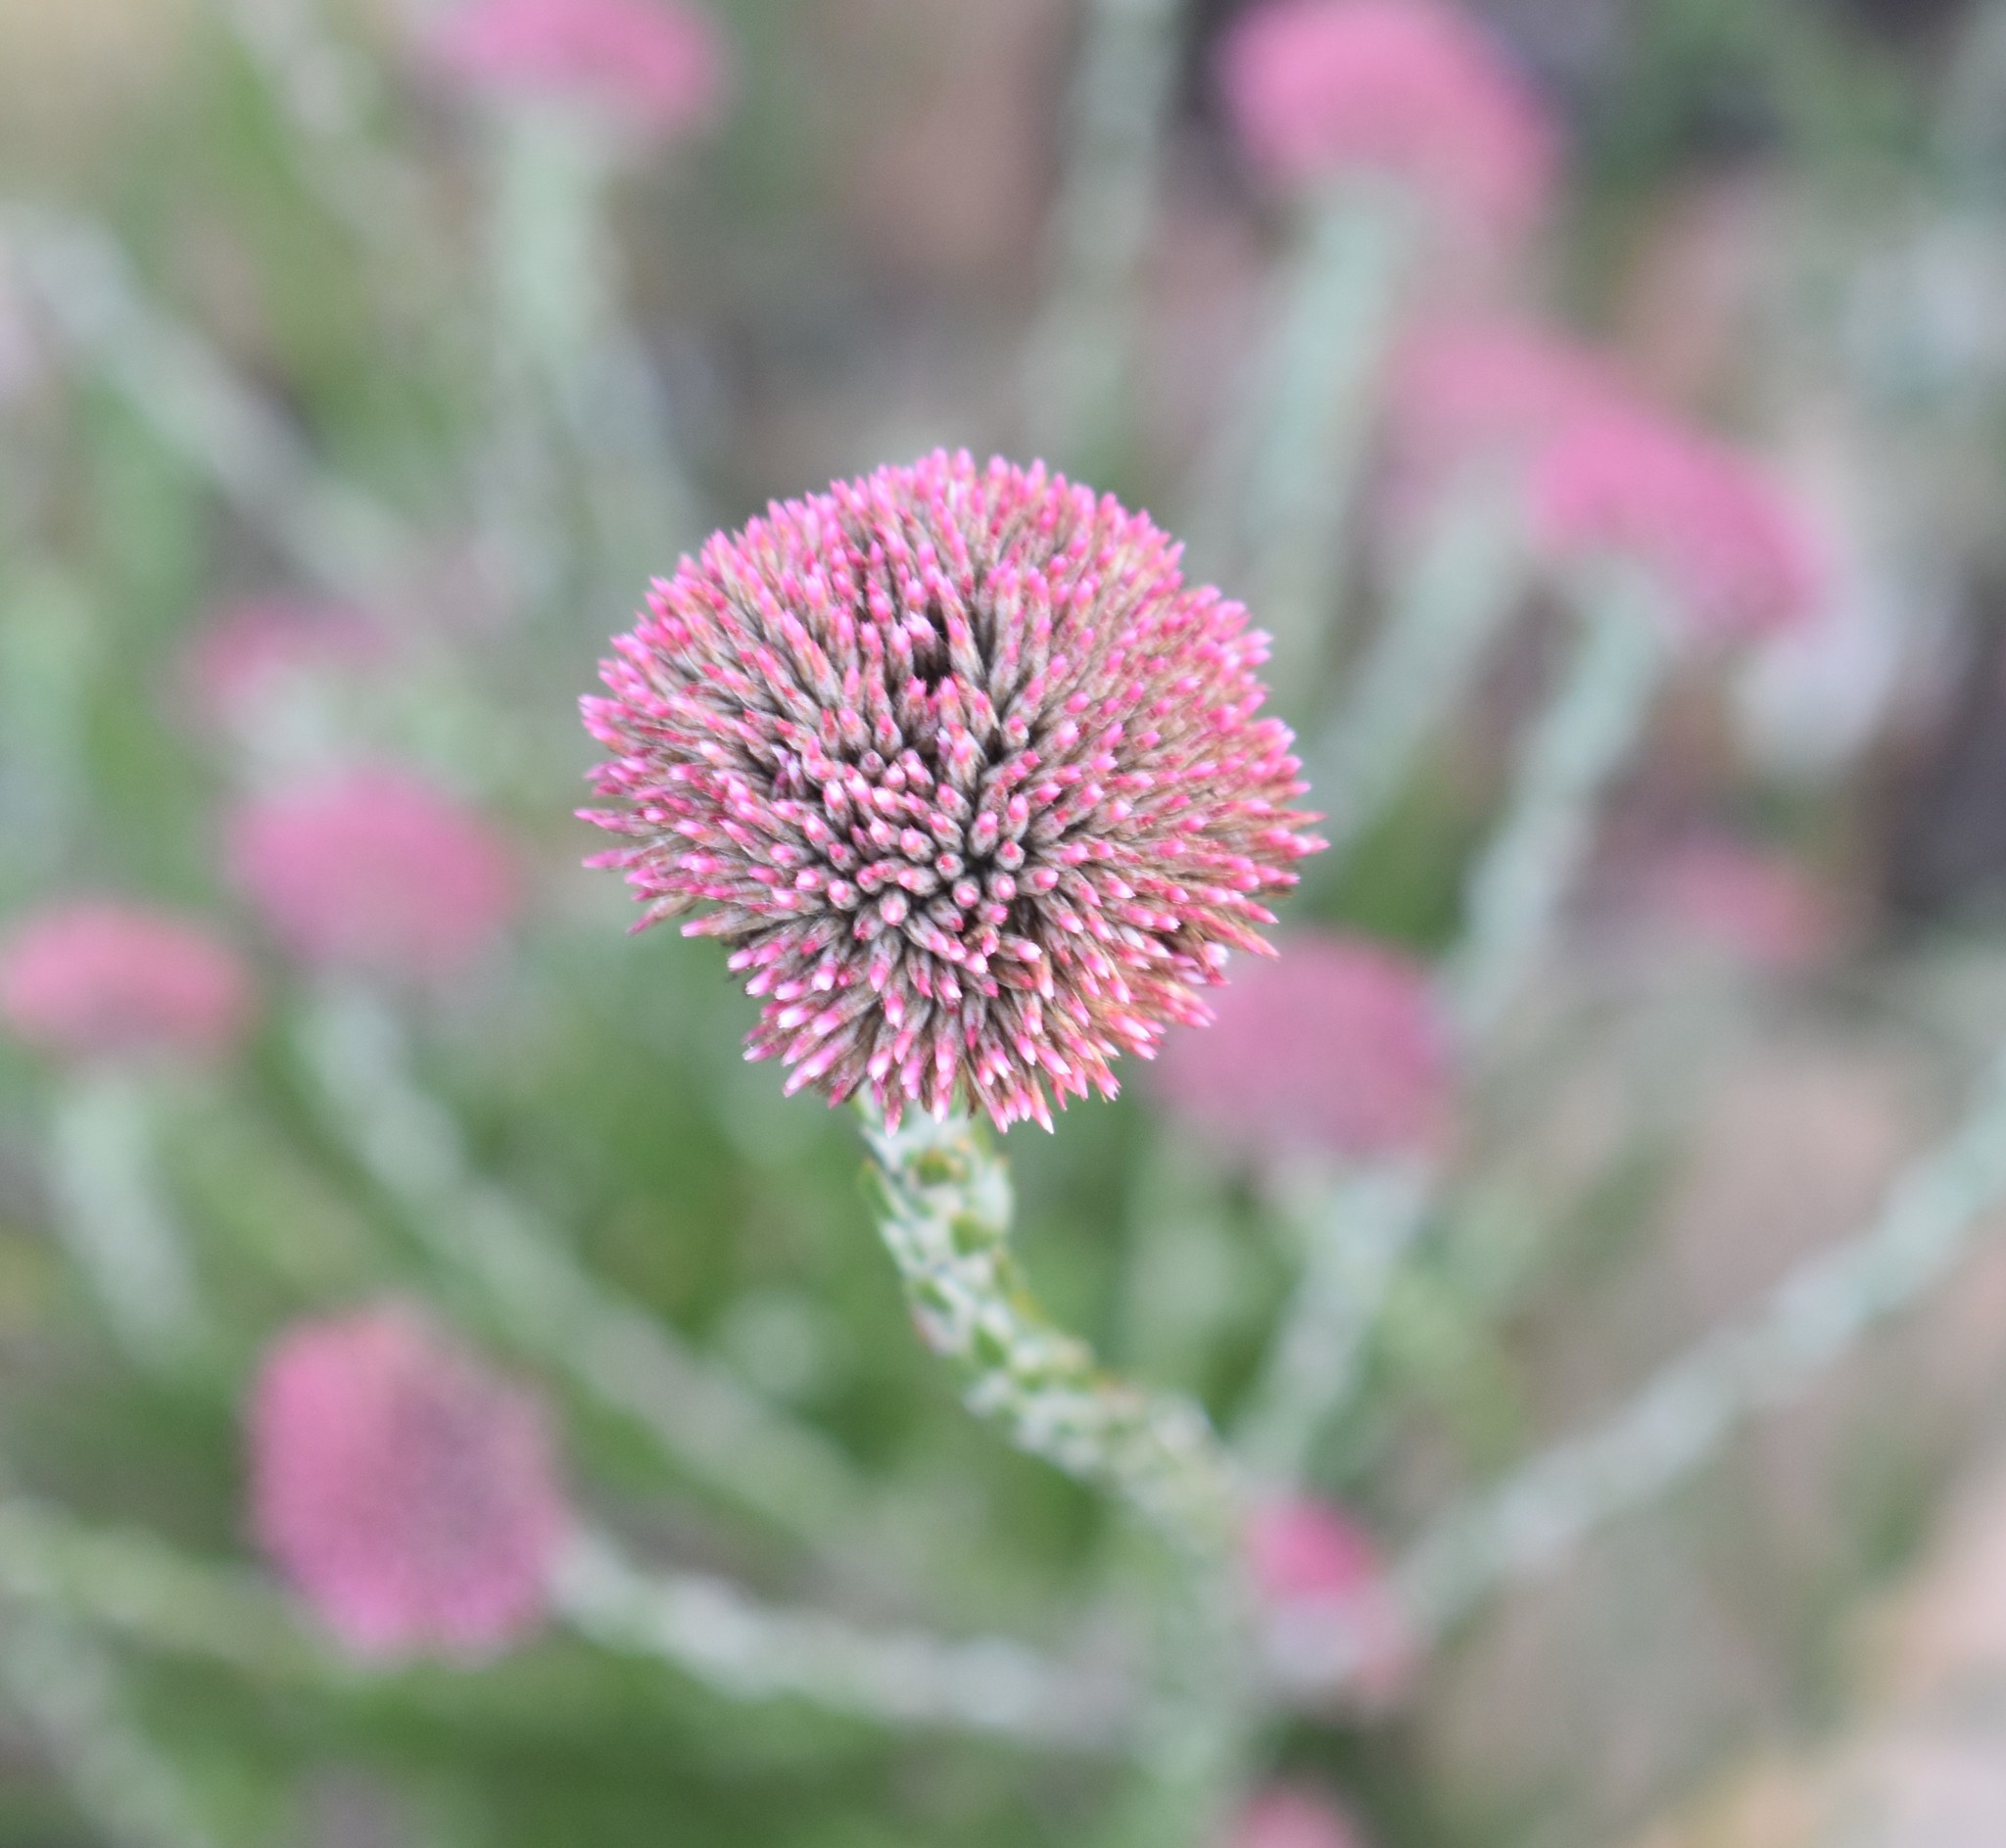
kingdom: Plantae
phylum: Tracheophyta
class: Magnoliopsida
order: Asterales
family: Asteraceae
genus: Metalasia
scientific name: Metalasia pungens
